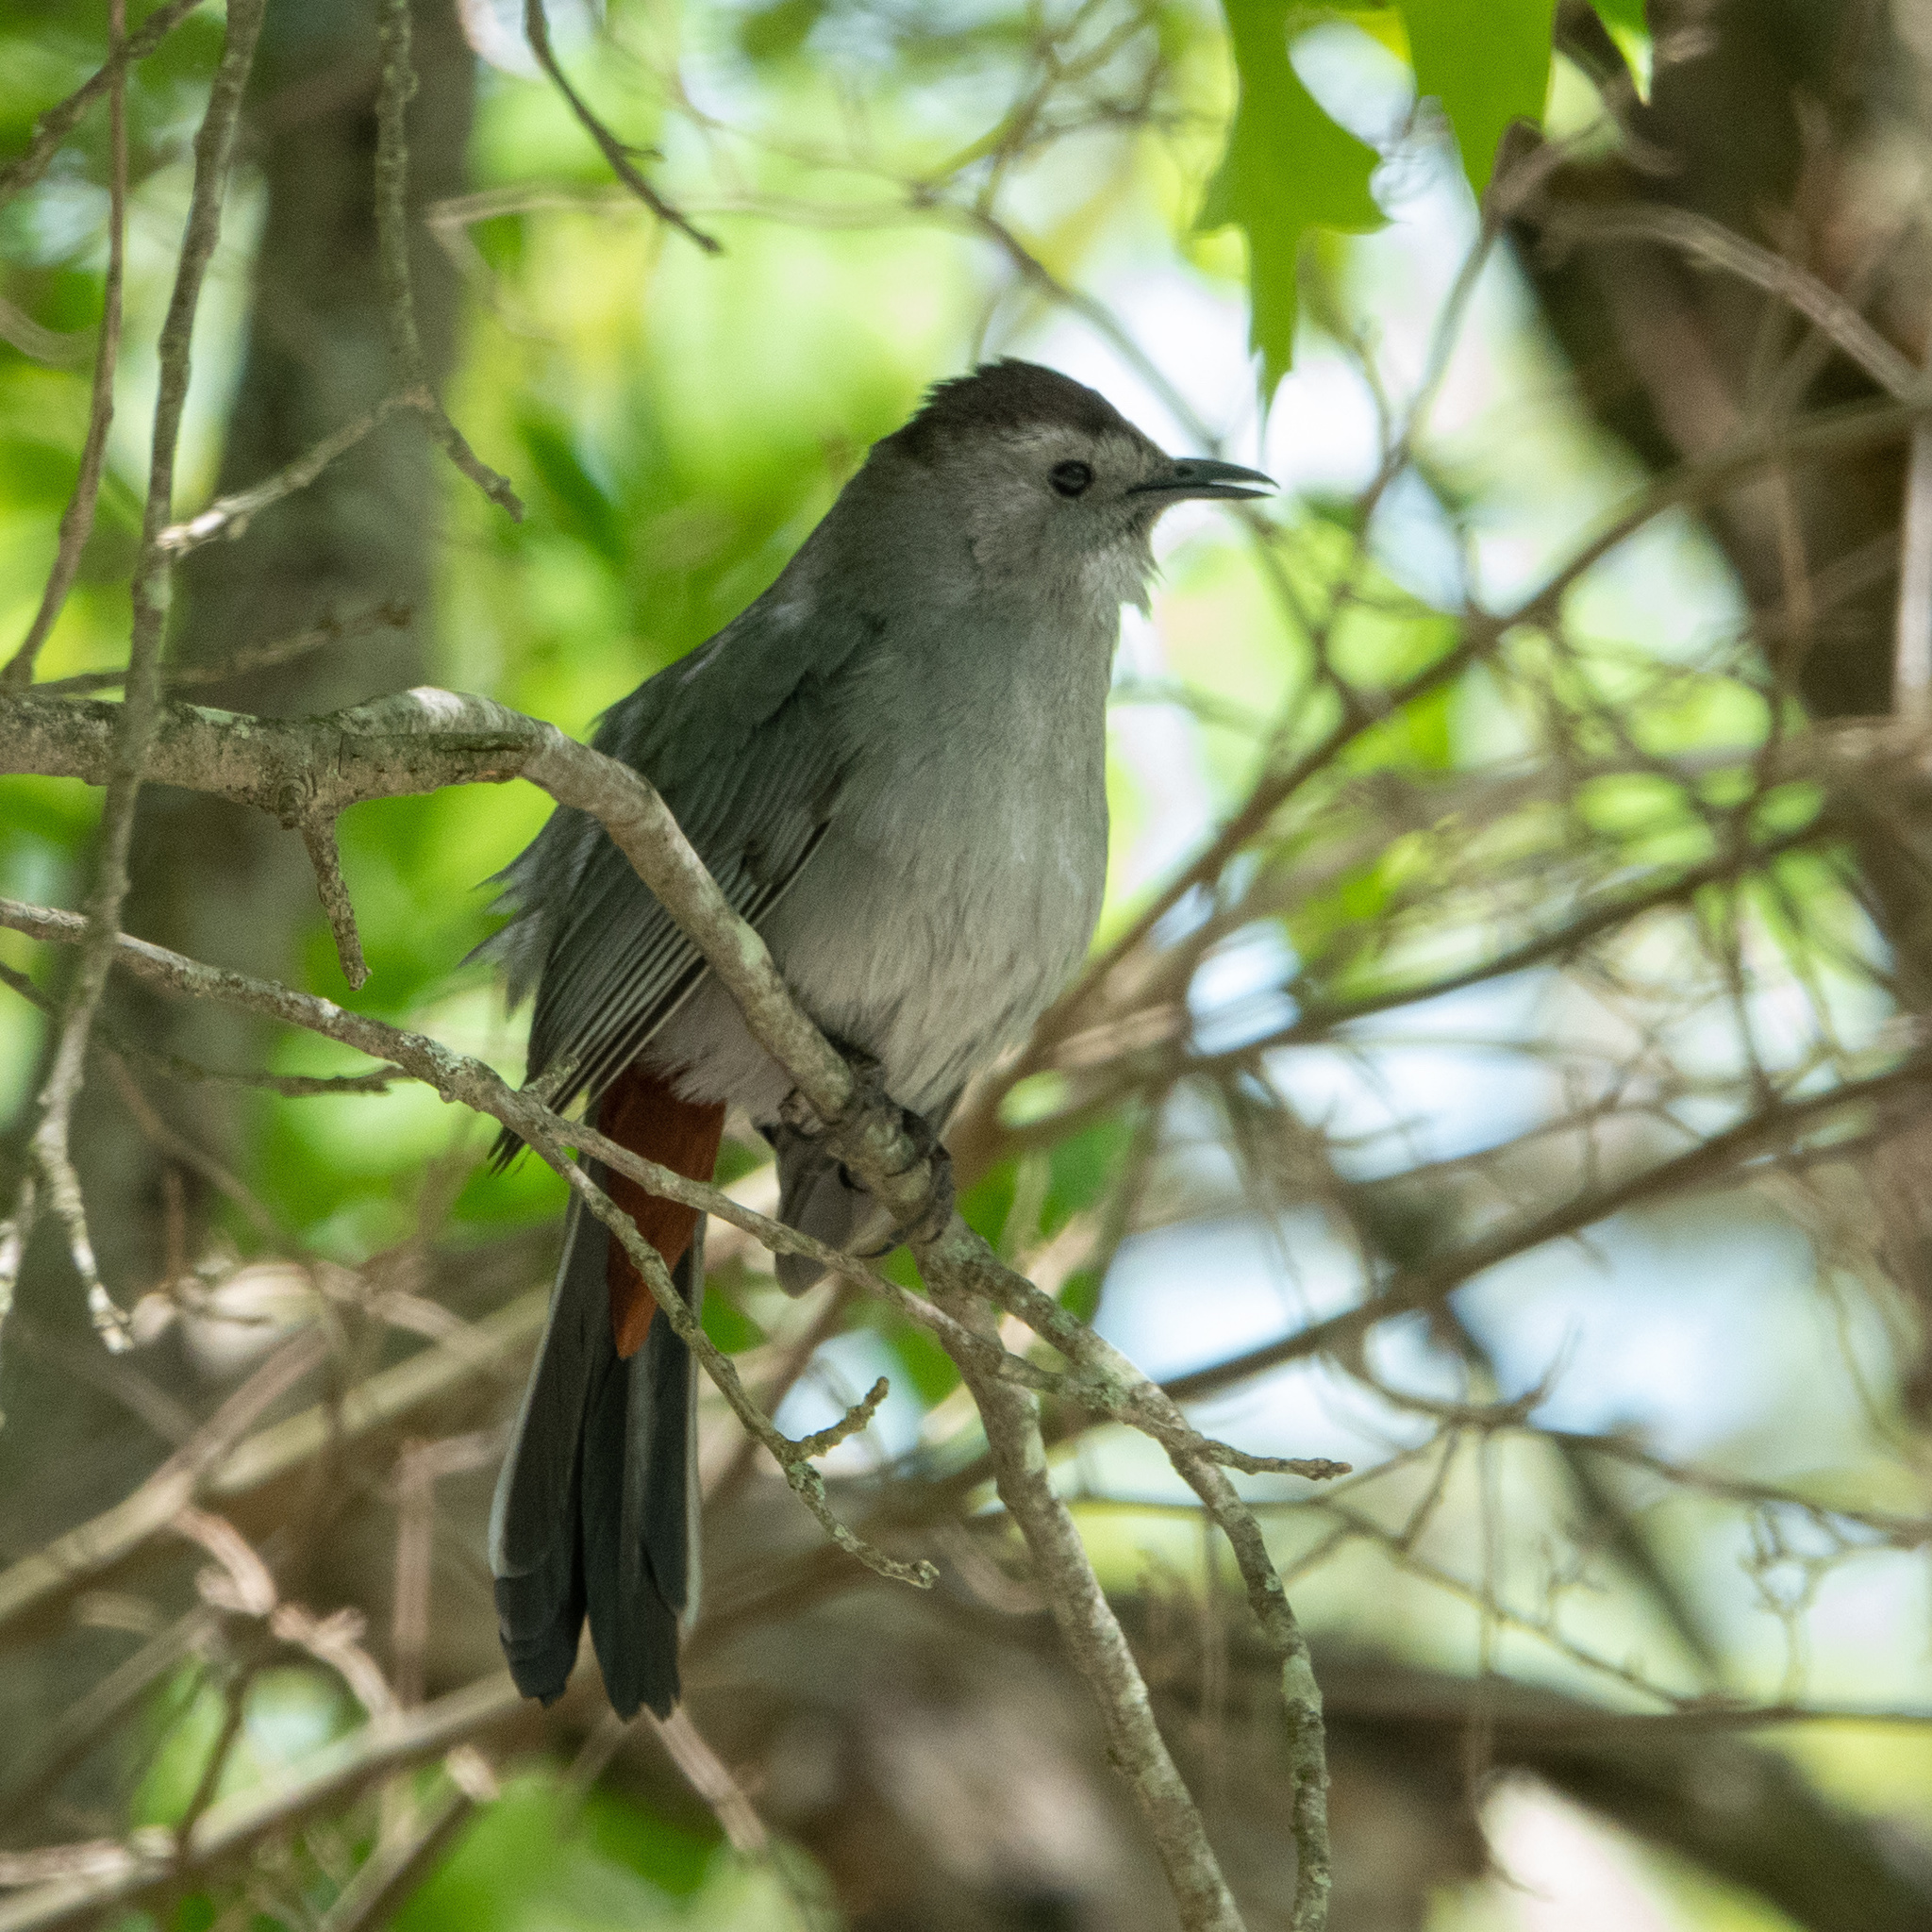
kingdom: Animalia
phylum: Chordata
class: Aves
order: Passeriformes
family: Mimidae
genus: Dumetella
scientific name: Dumetella carolinensis
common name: Gray catbird
